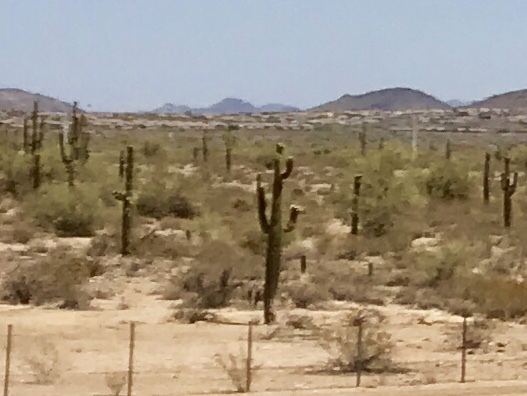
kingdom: Plantae
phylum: Tracheophyta
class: Magnoliopsida
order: Caryophyllales
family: Cactaceae
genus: Carnegiea
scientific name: Carnegiea gigantea
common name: Saguaro
